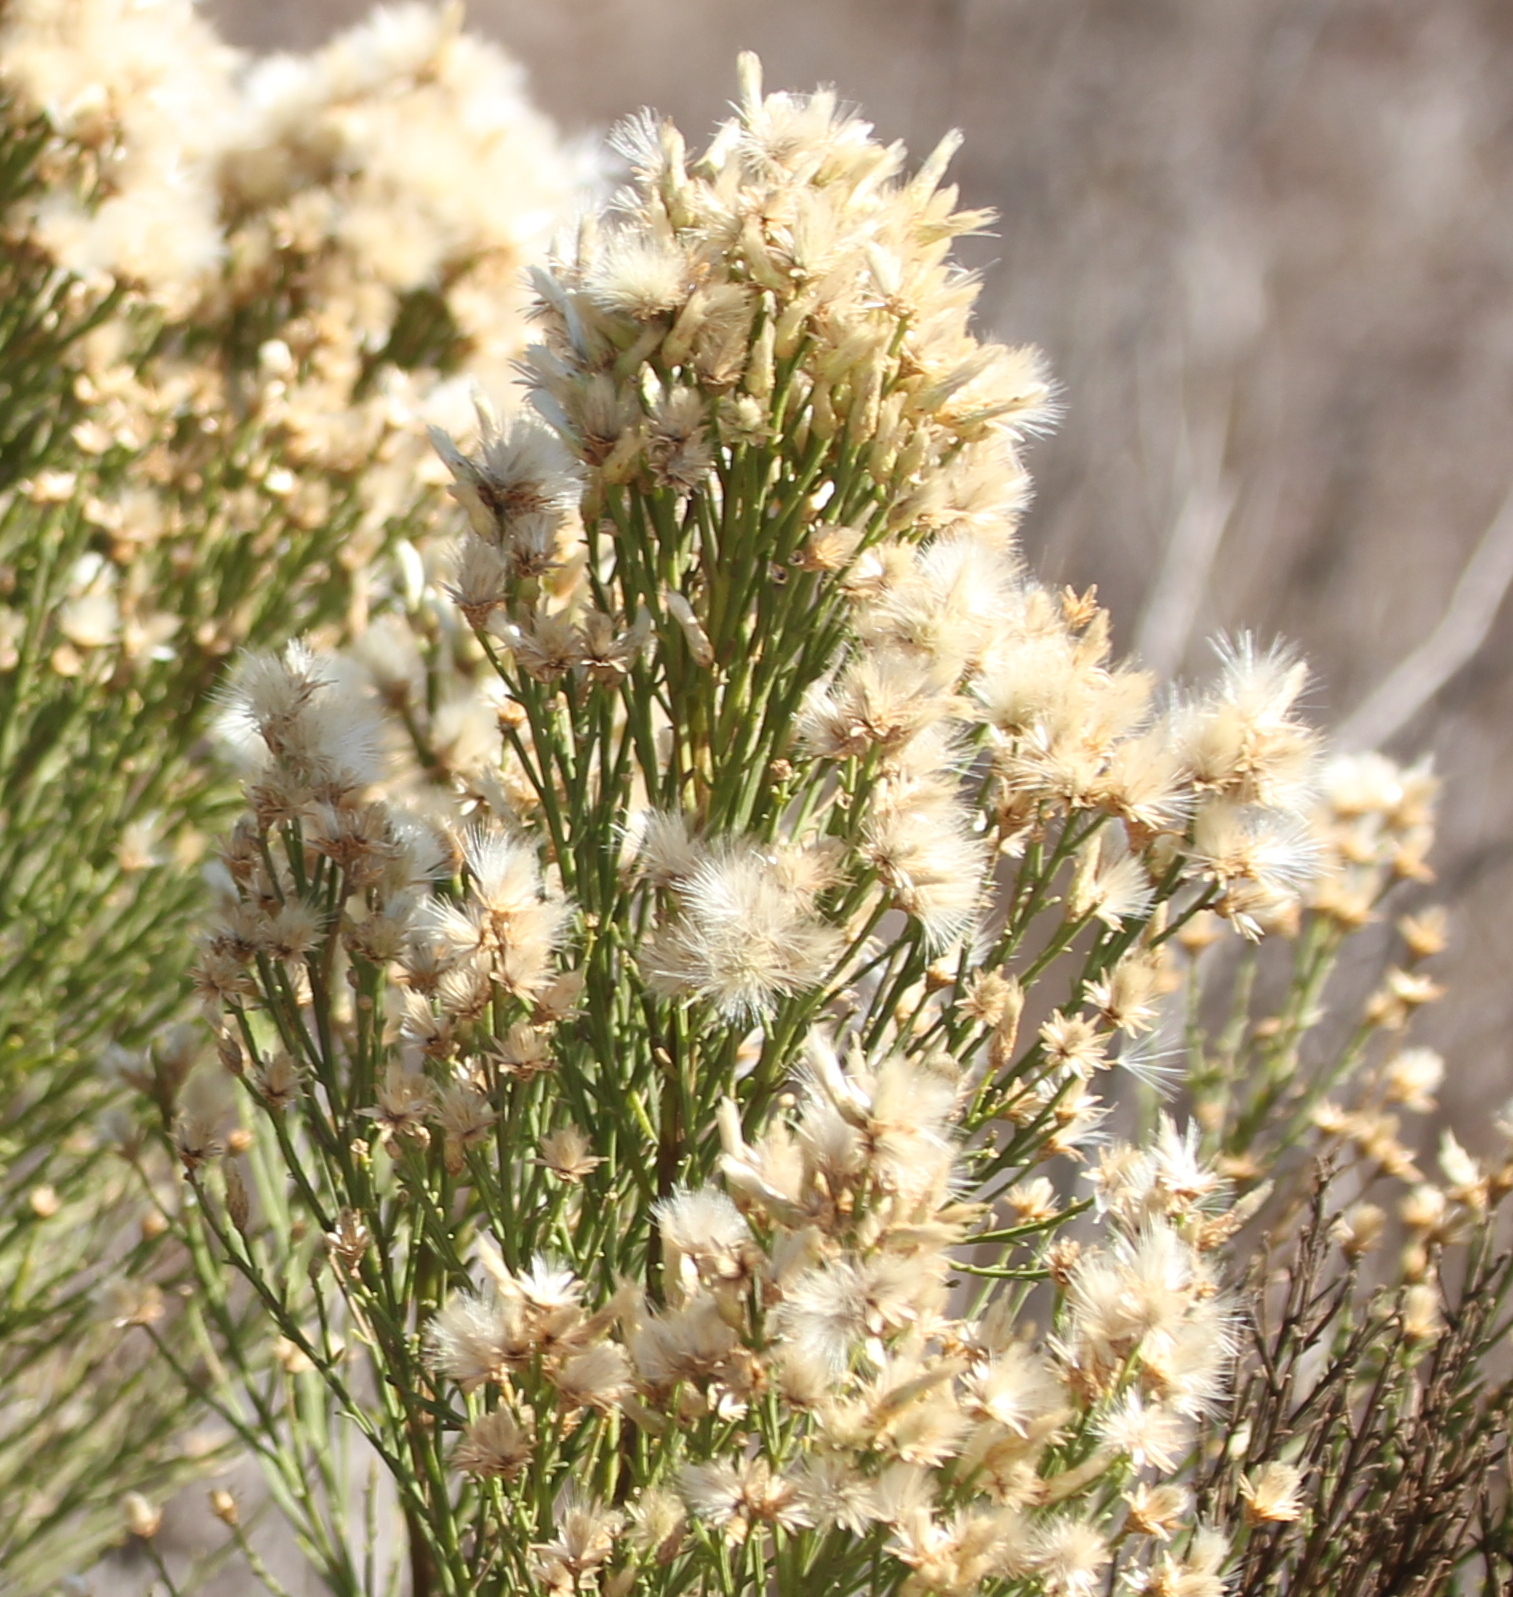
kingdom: Plantae
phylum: Tracheophyta
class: Magnoliopsida
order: Asterales
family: Asteraceae
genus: Baccharis
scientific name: Baccharis sarothroides
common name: Desert-broom
